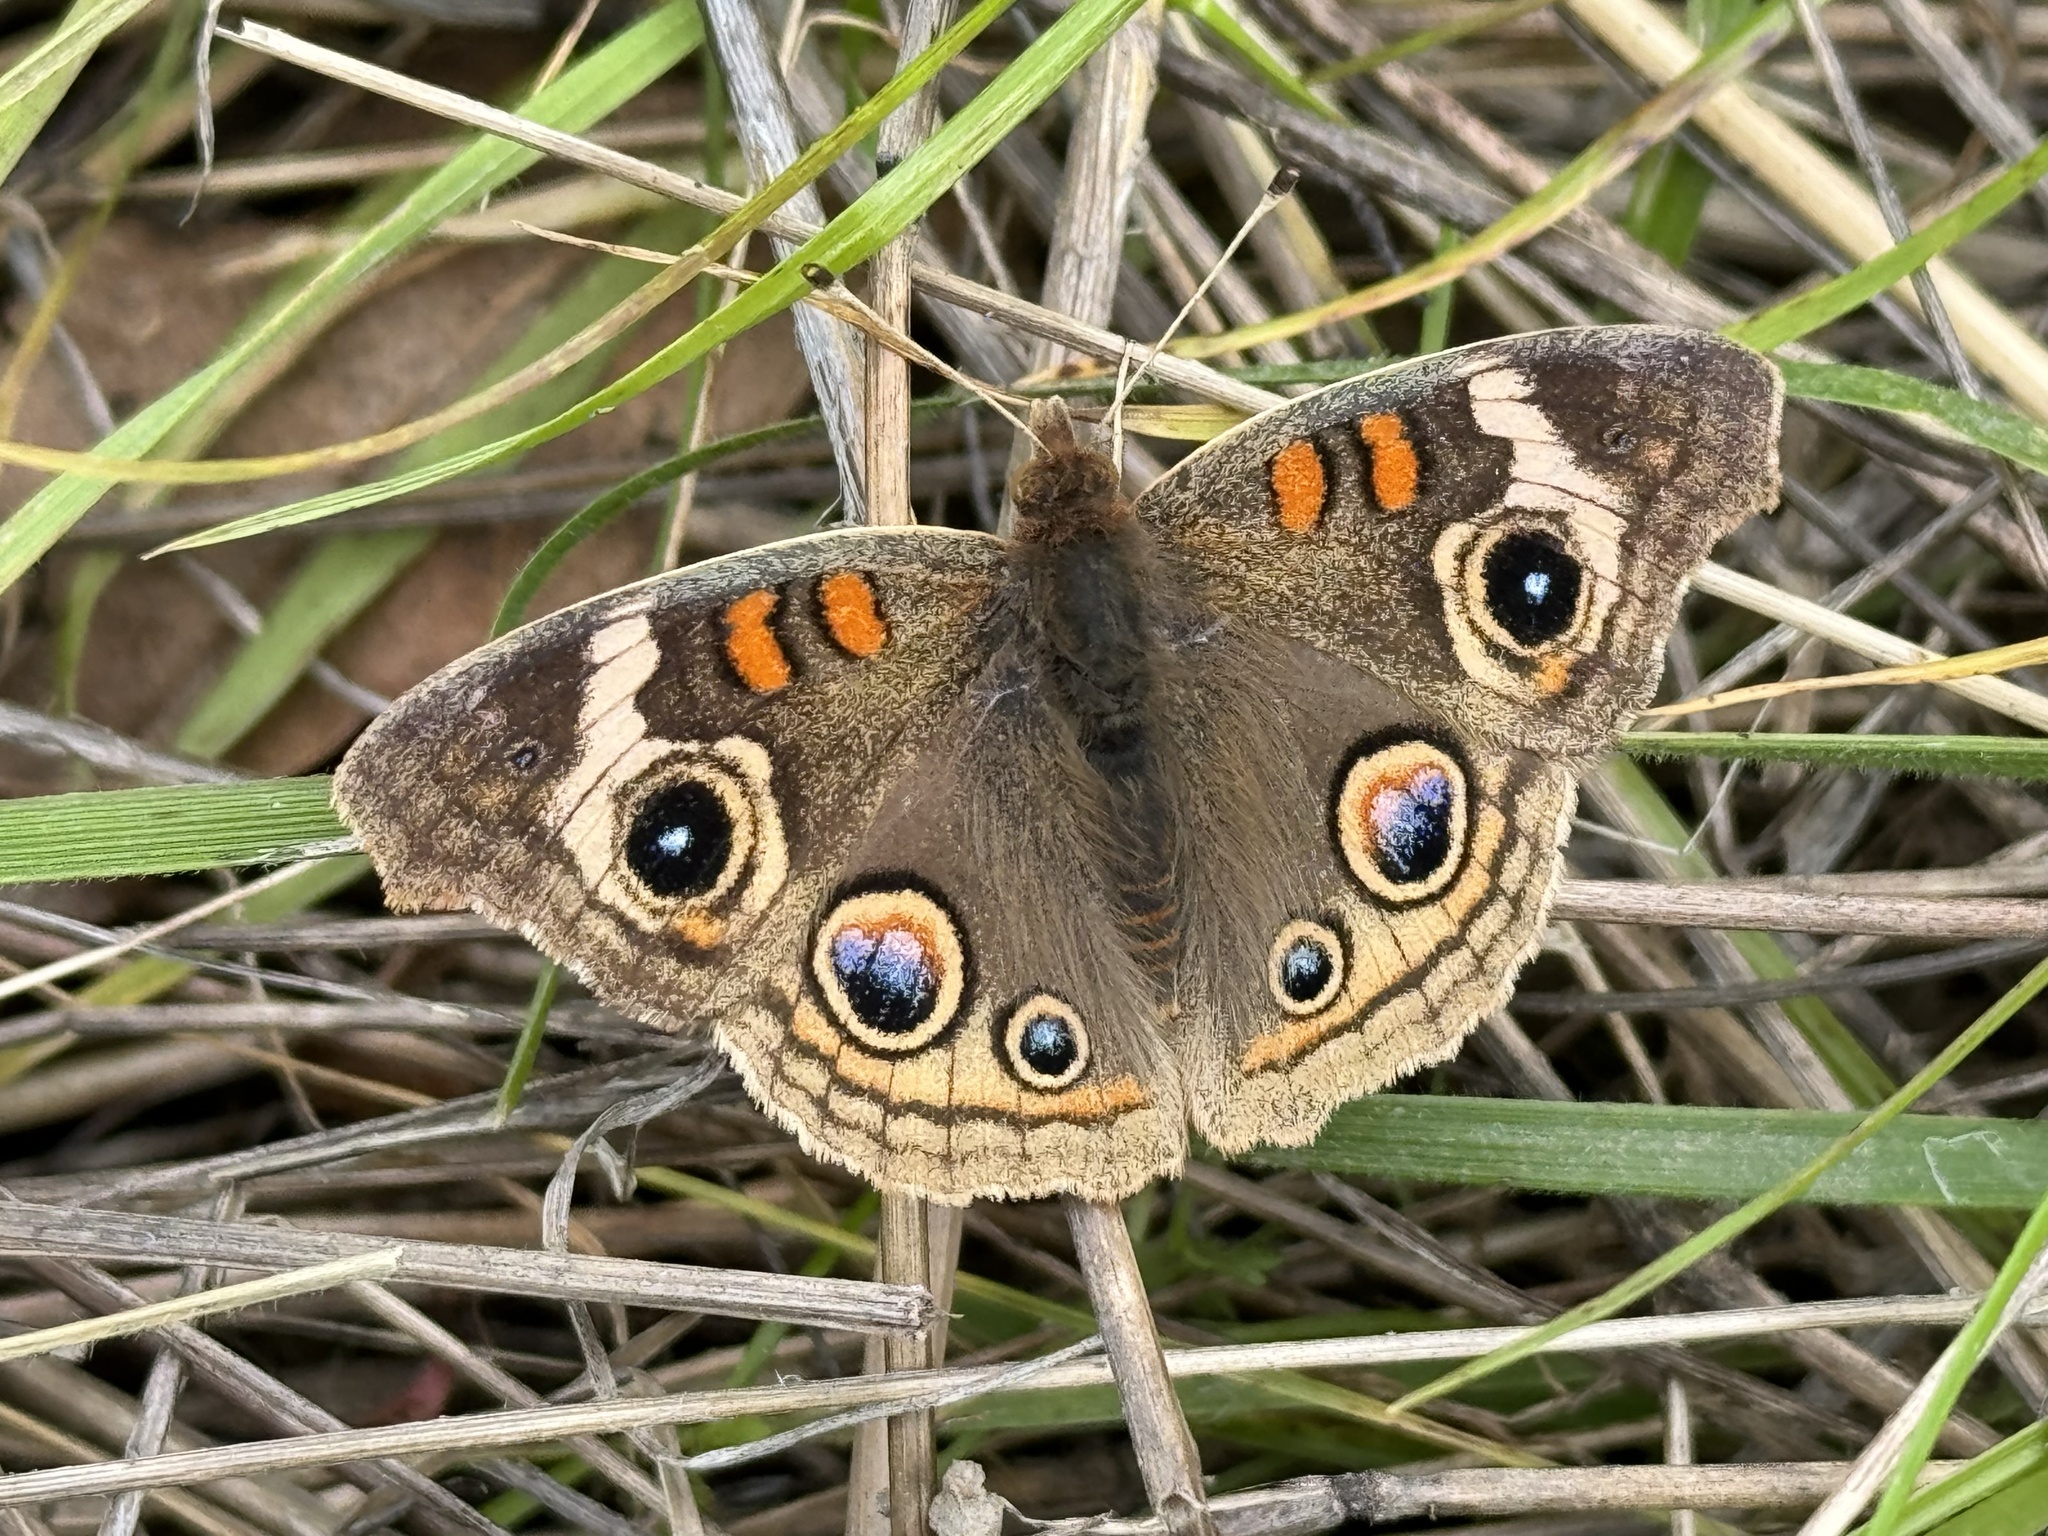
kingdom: Animalia
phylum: Arthropoda
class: Insecta
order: Lepidoptera
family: Nymphalidae
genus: Junonia
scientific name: Junonia grisea
